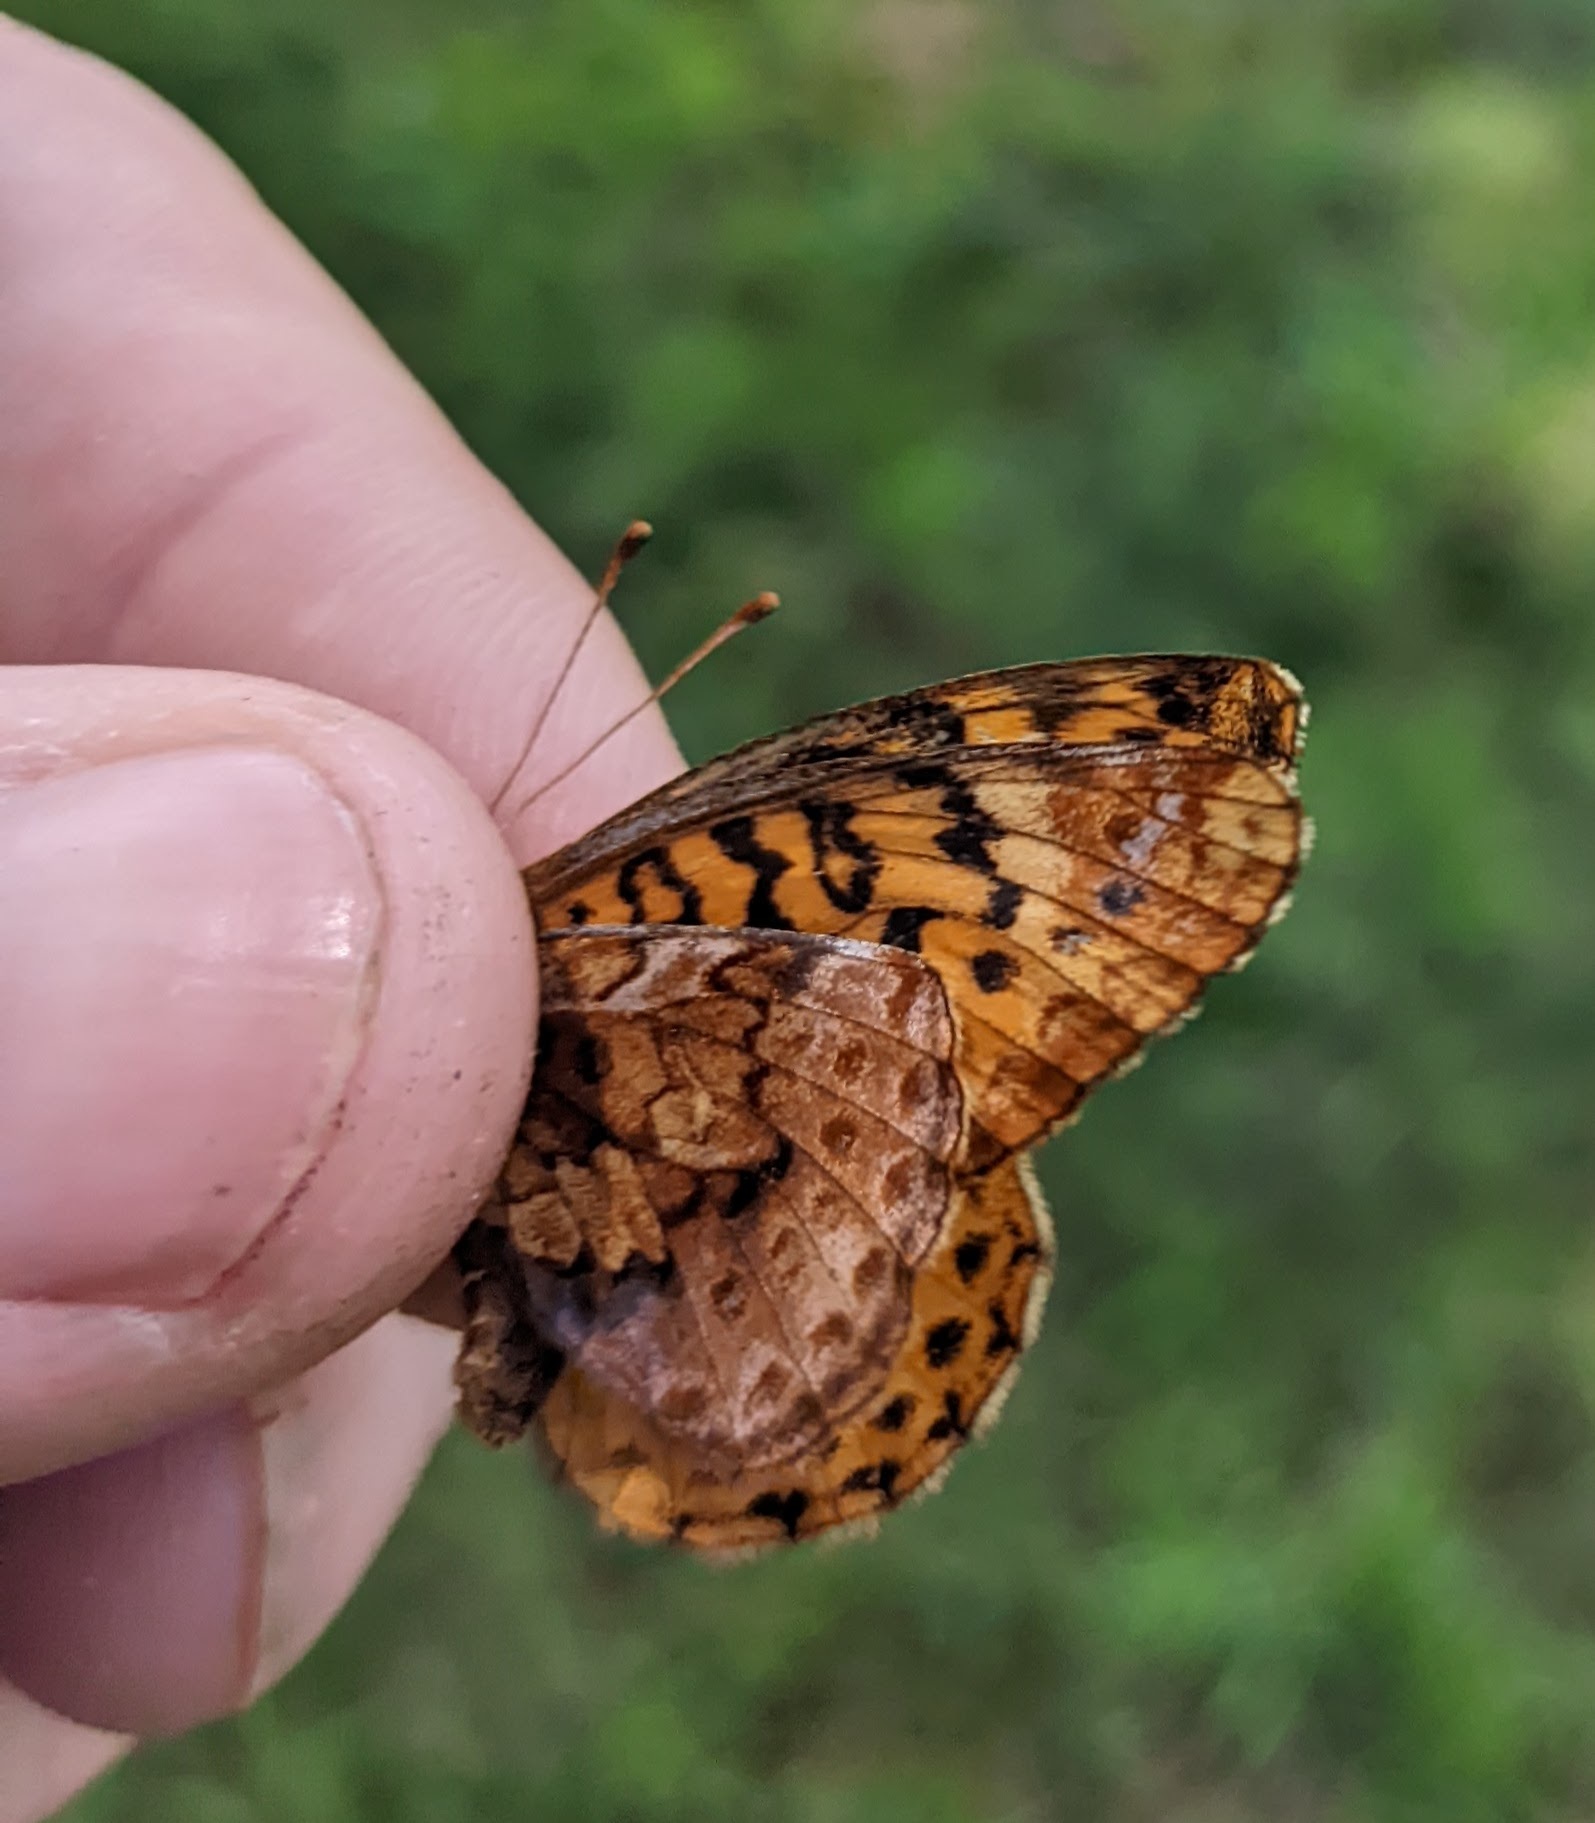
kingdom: Animalia
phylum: Arthropoda
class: Insecta
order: Lepidoptera
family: Nymphalidae
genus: Clossiana
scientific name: Clossiana toddi
